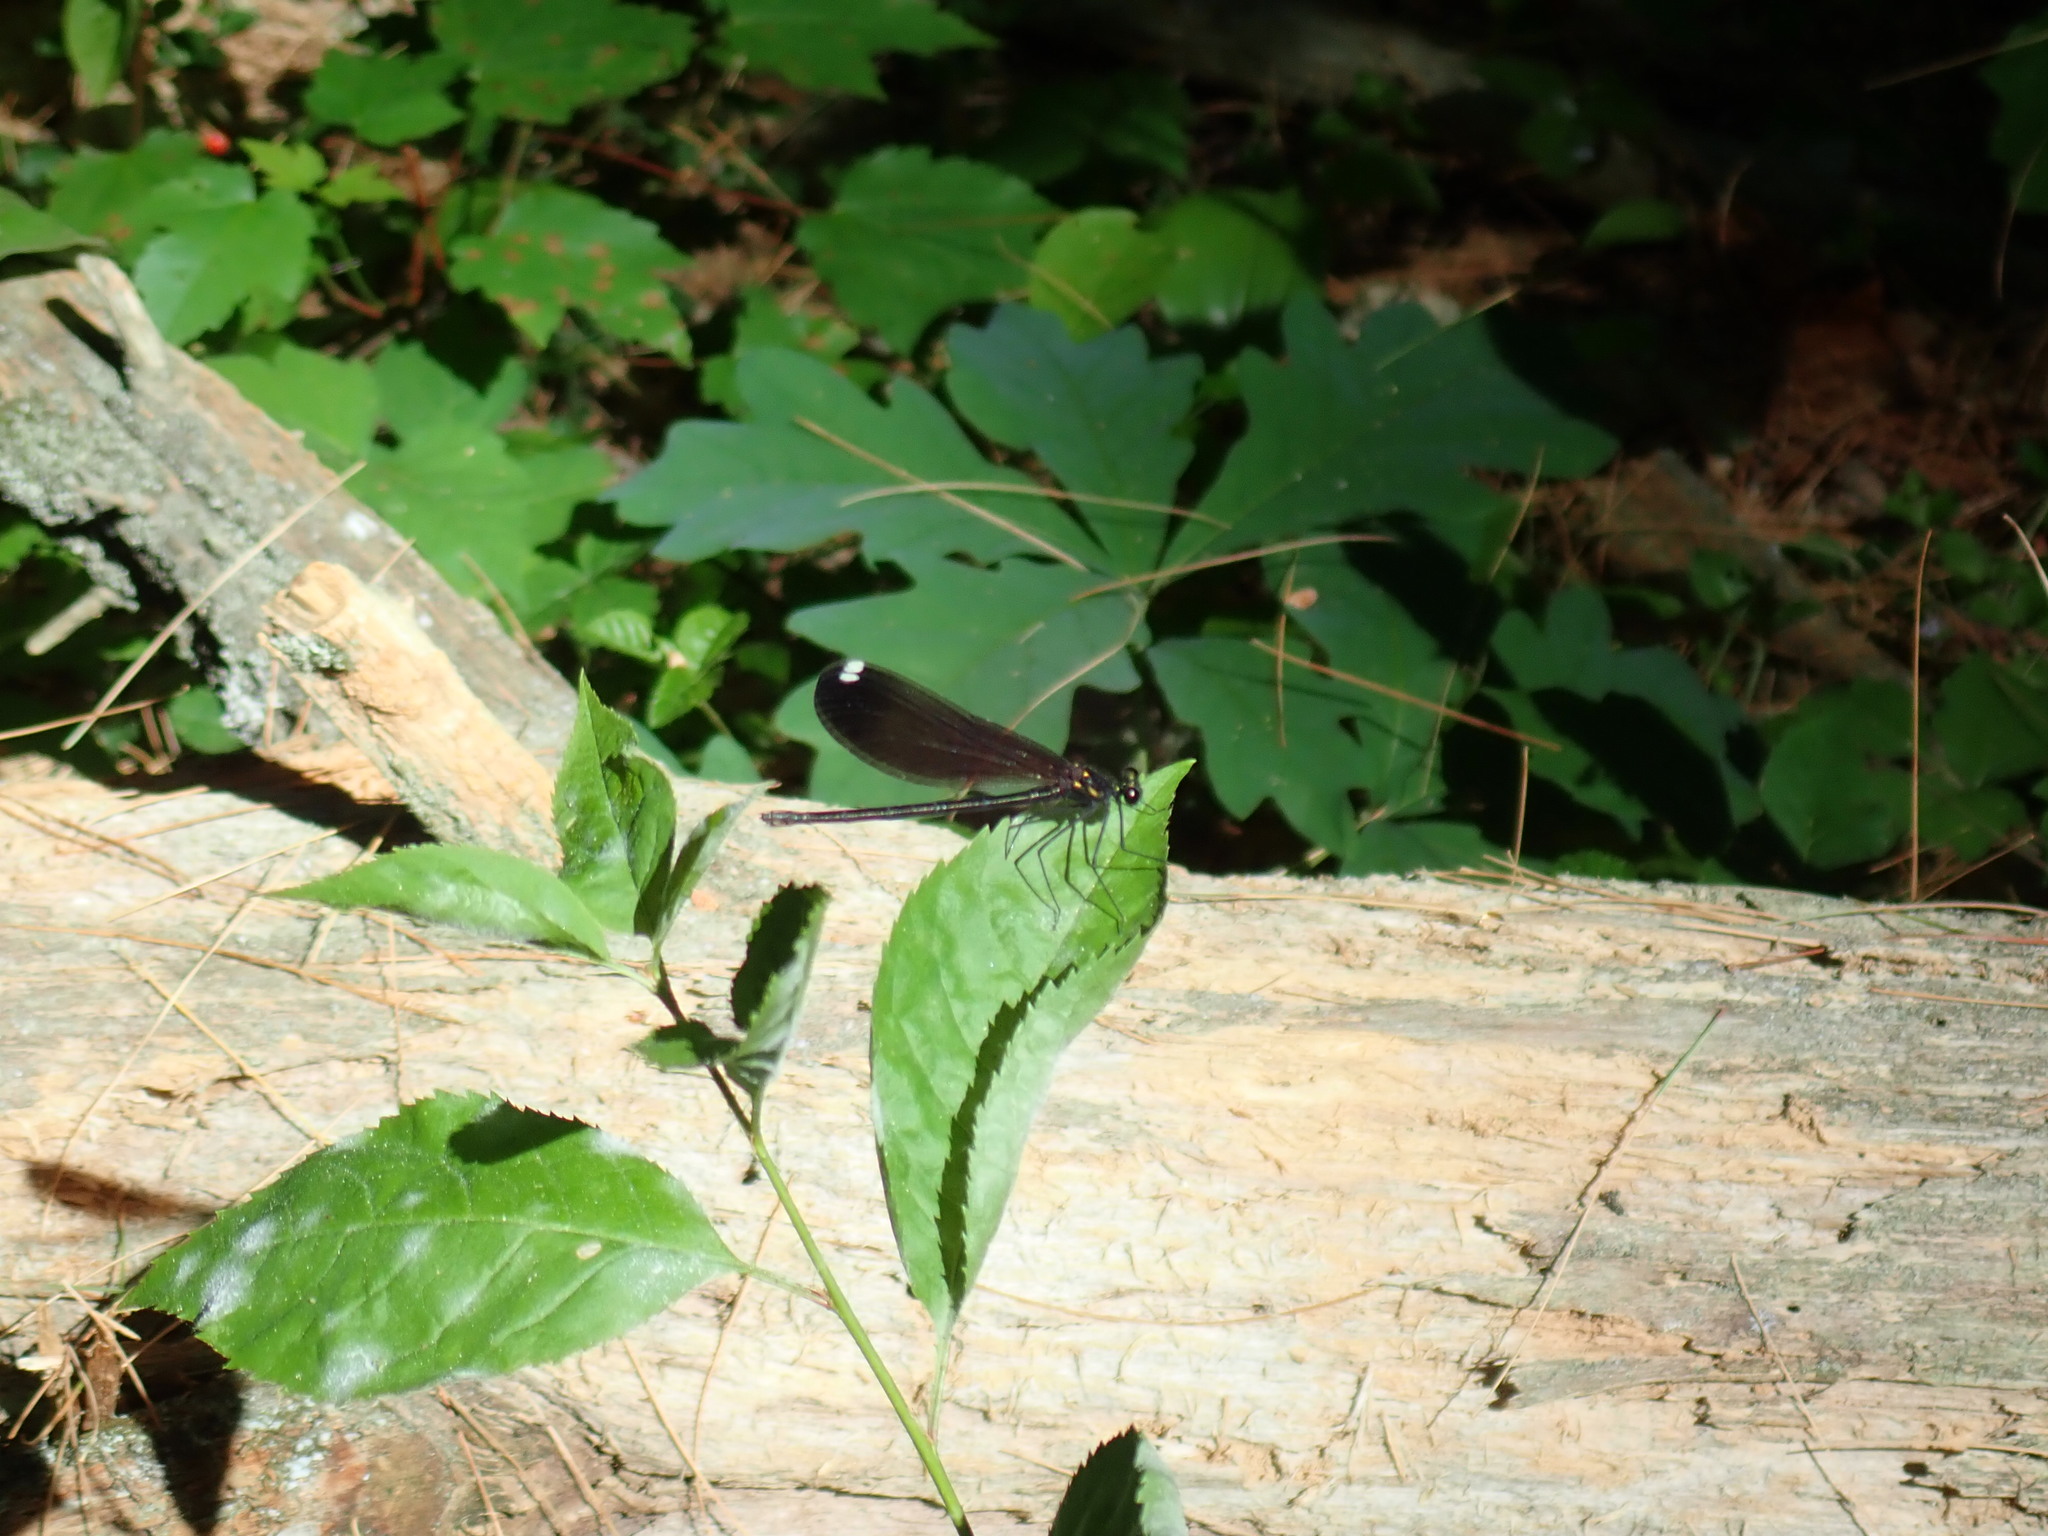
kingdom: Animalia
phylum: Arthropoda
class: Insecta
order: Odonata
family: Calopterygidae
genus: Calopteryx
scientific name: Calopteryx maculata
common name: Ebony jewelwing
